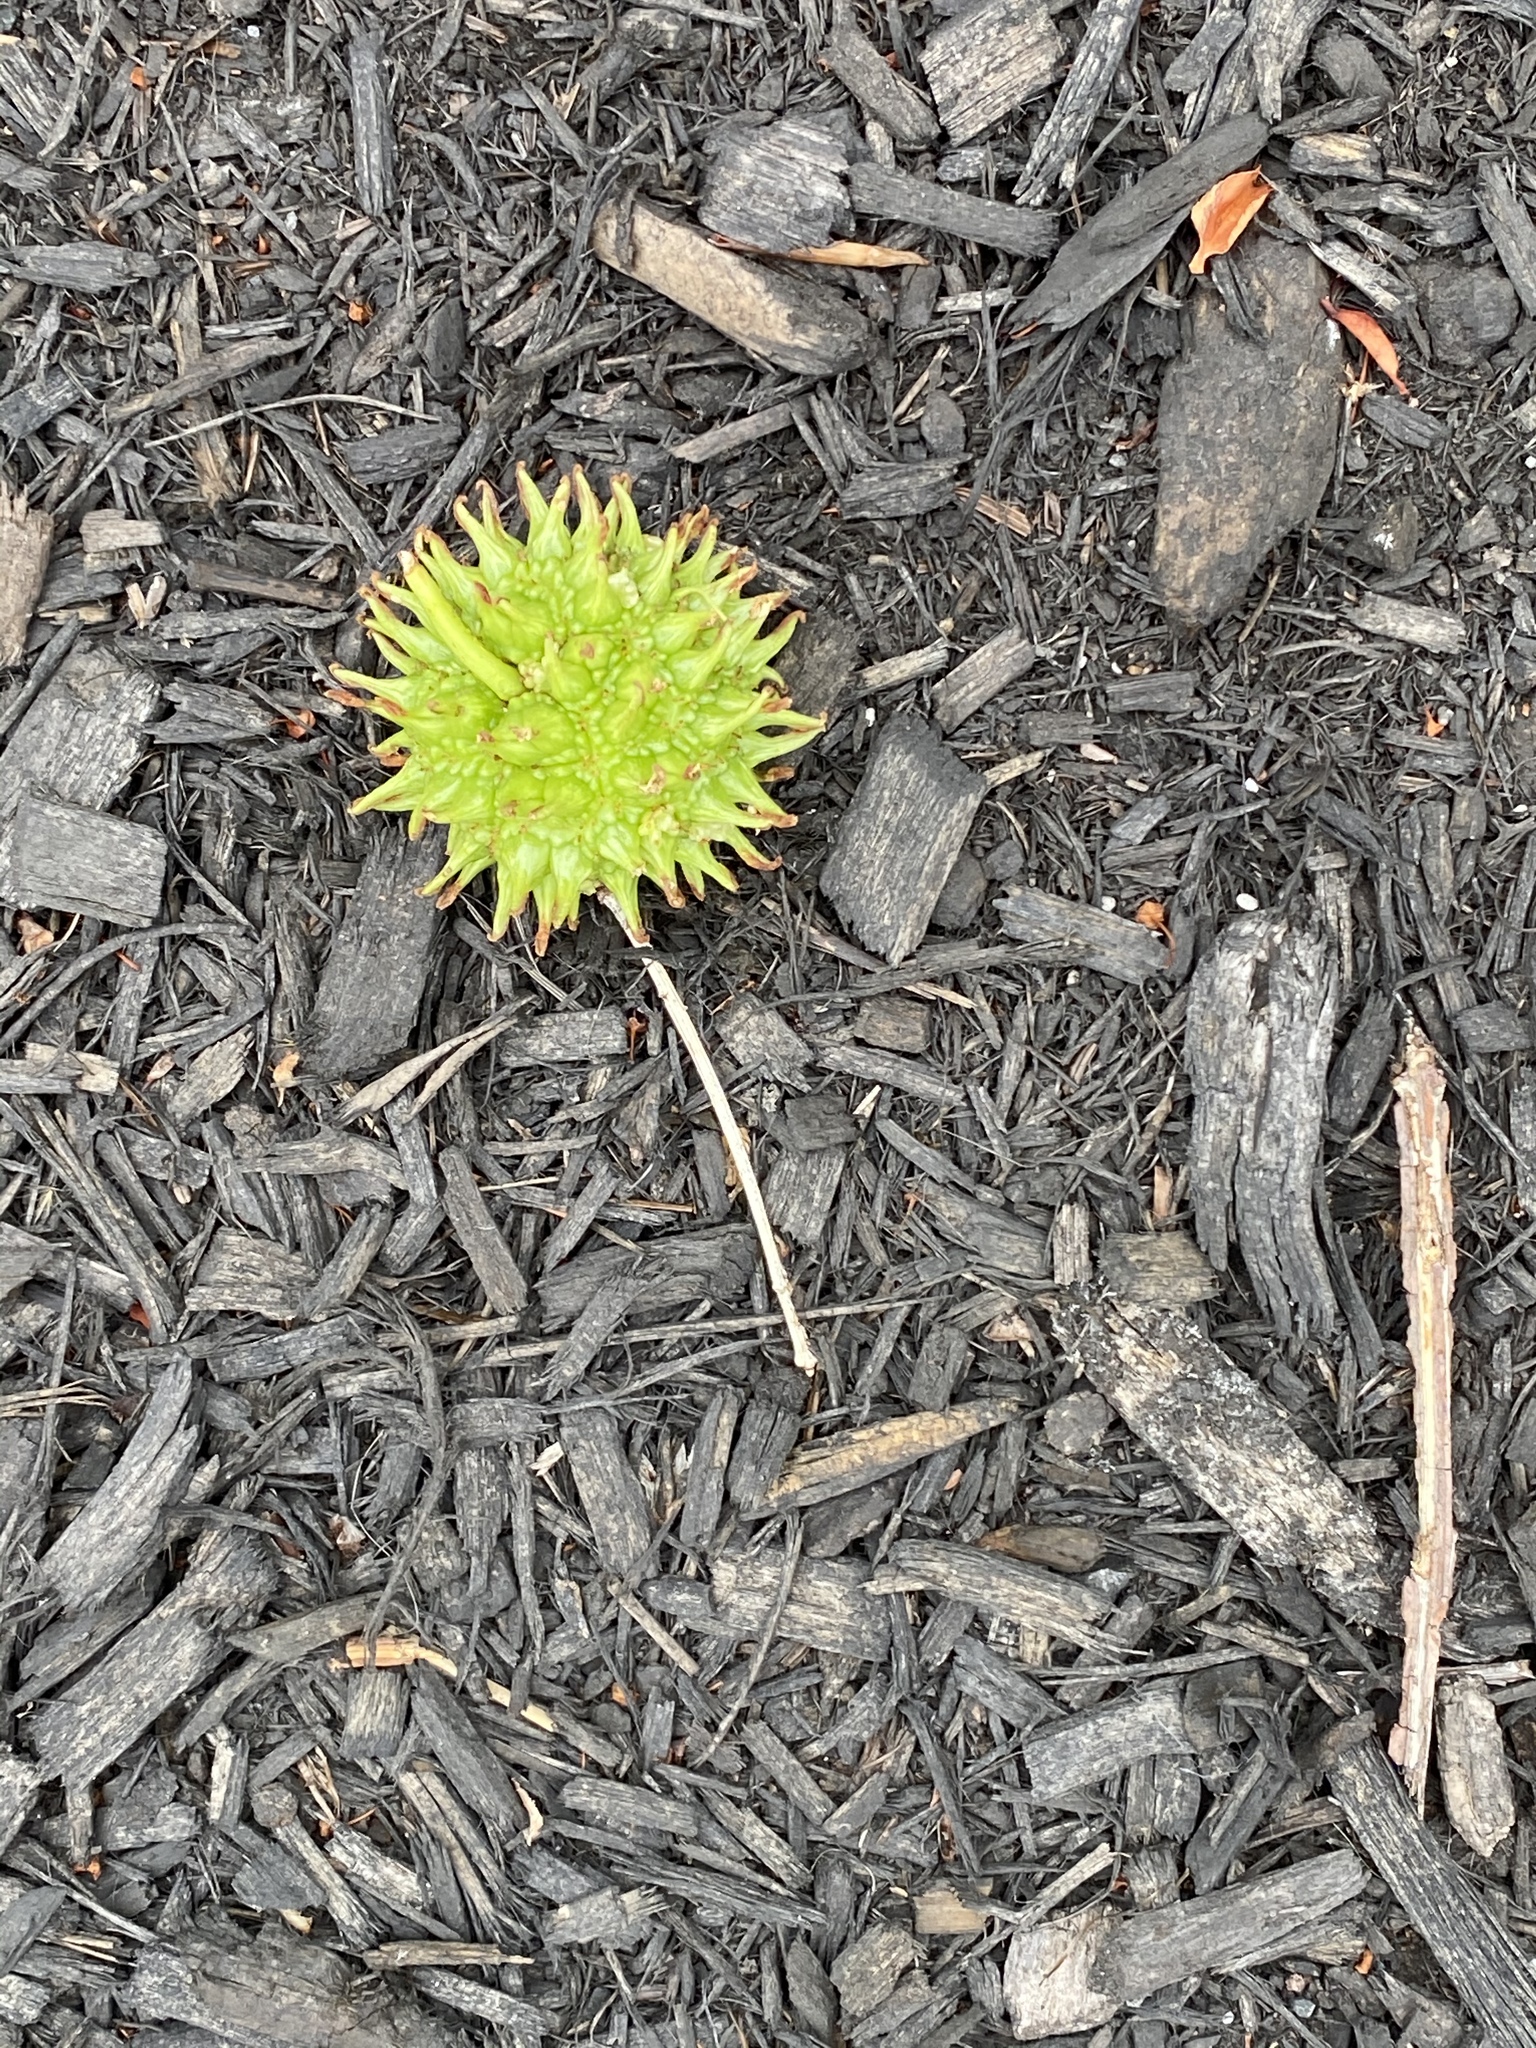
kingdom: Plantae
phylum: Tracheophyta
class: Magnoliopsida
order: Saxifragales
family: Altingiaceae
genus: Liquidambar
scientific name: Liquidambar styraciflua
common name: Sweet gum
